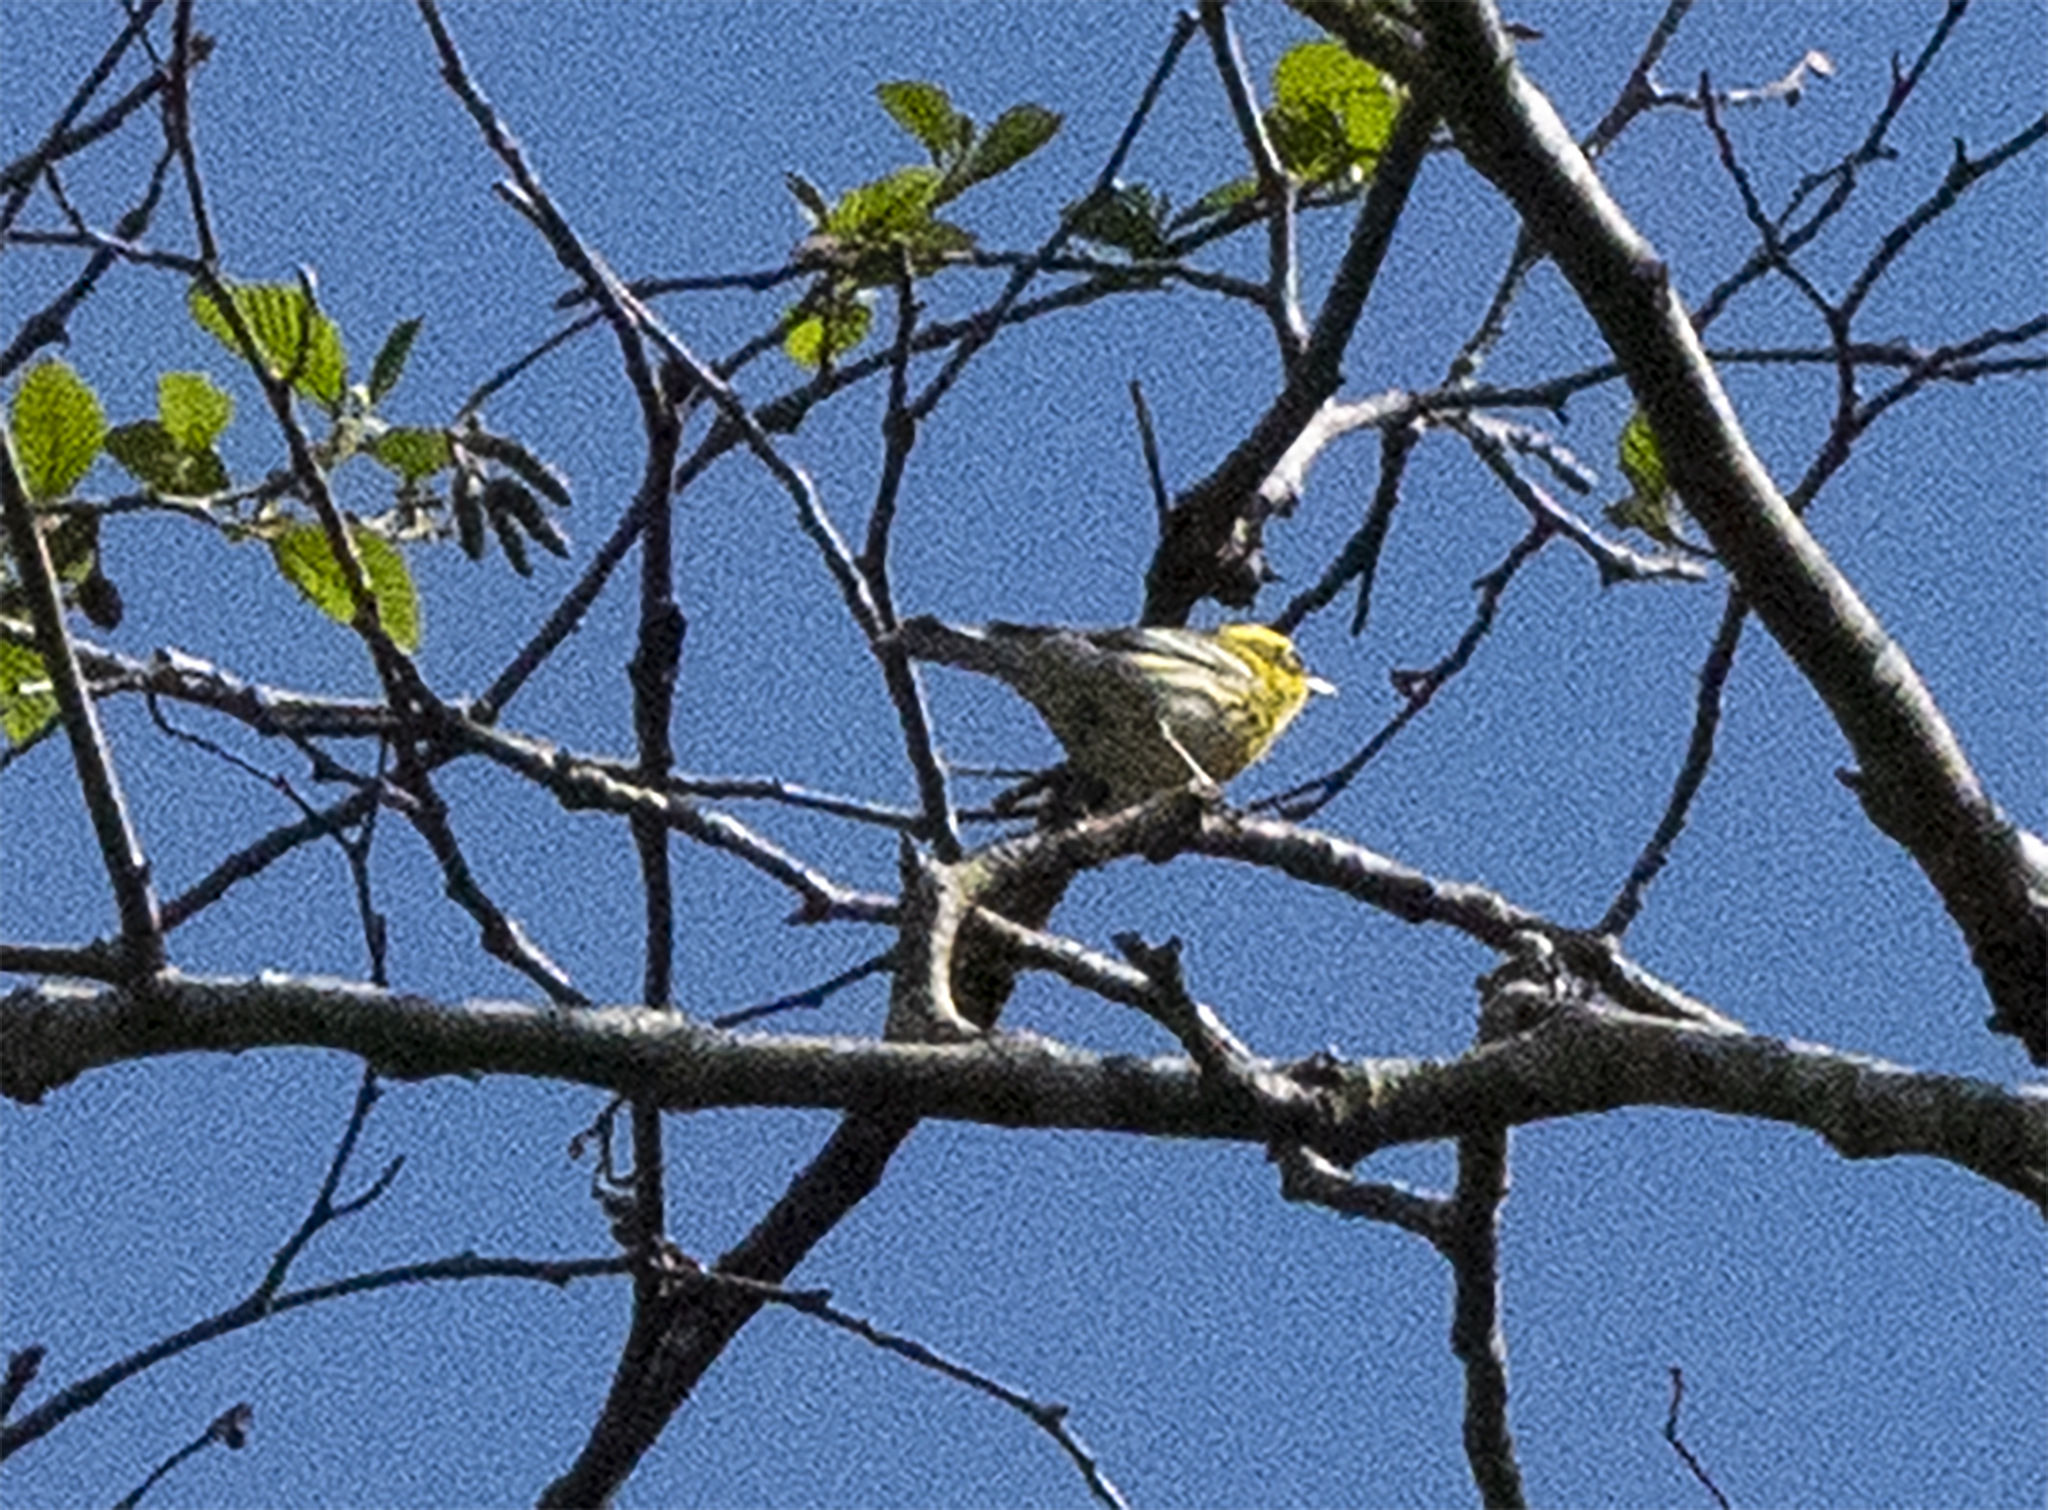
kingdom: Animalia
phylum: Chordata
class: Aves
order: Passeriformes
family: Parulidae
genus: Setophaga
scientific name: Setophaga townsendi
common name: Townsend's warbler
